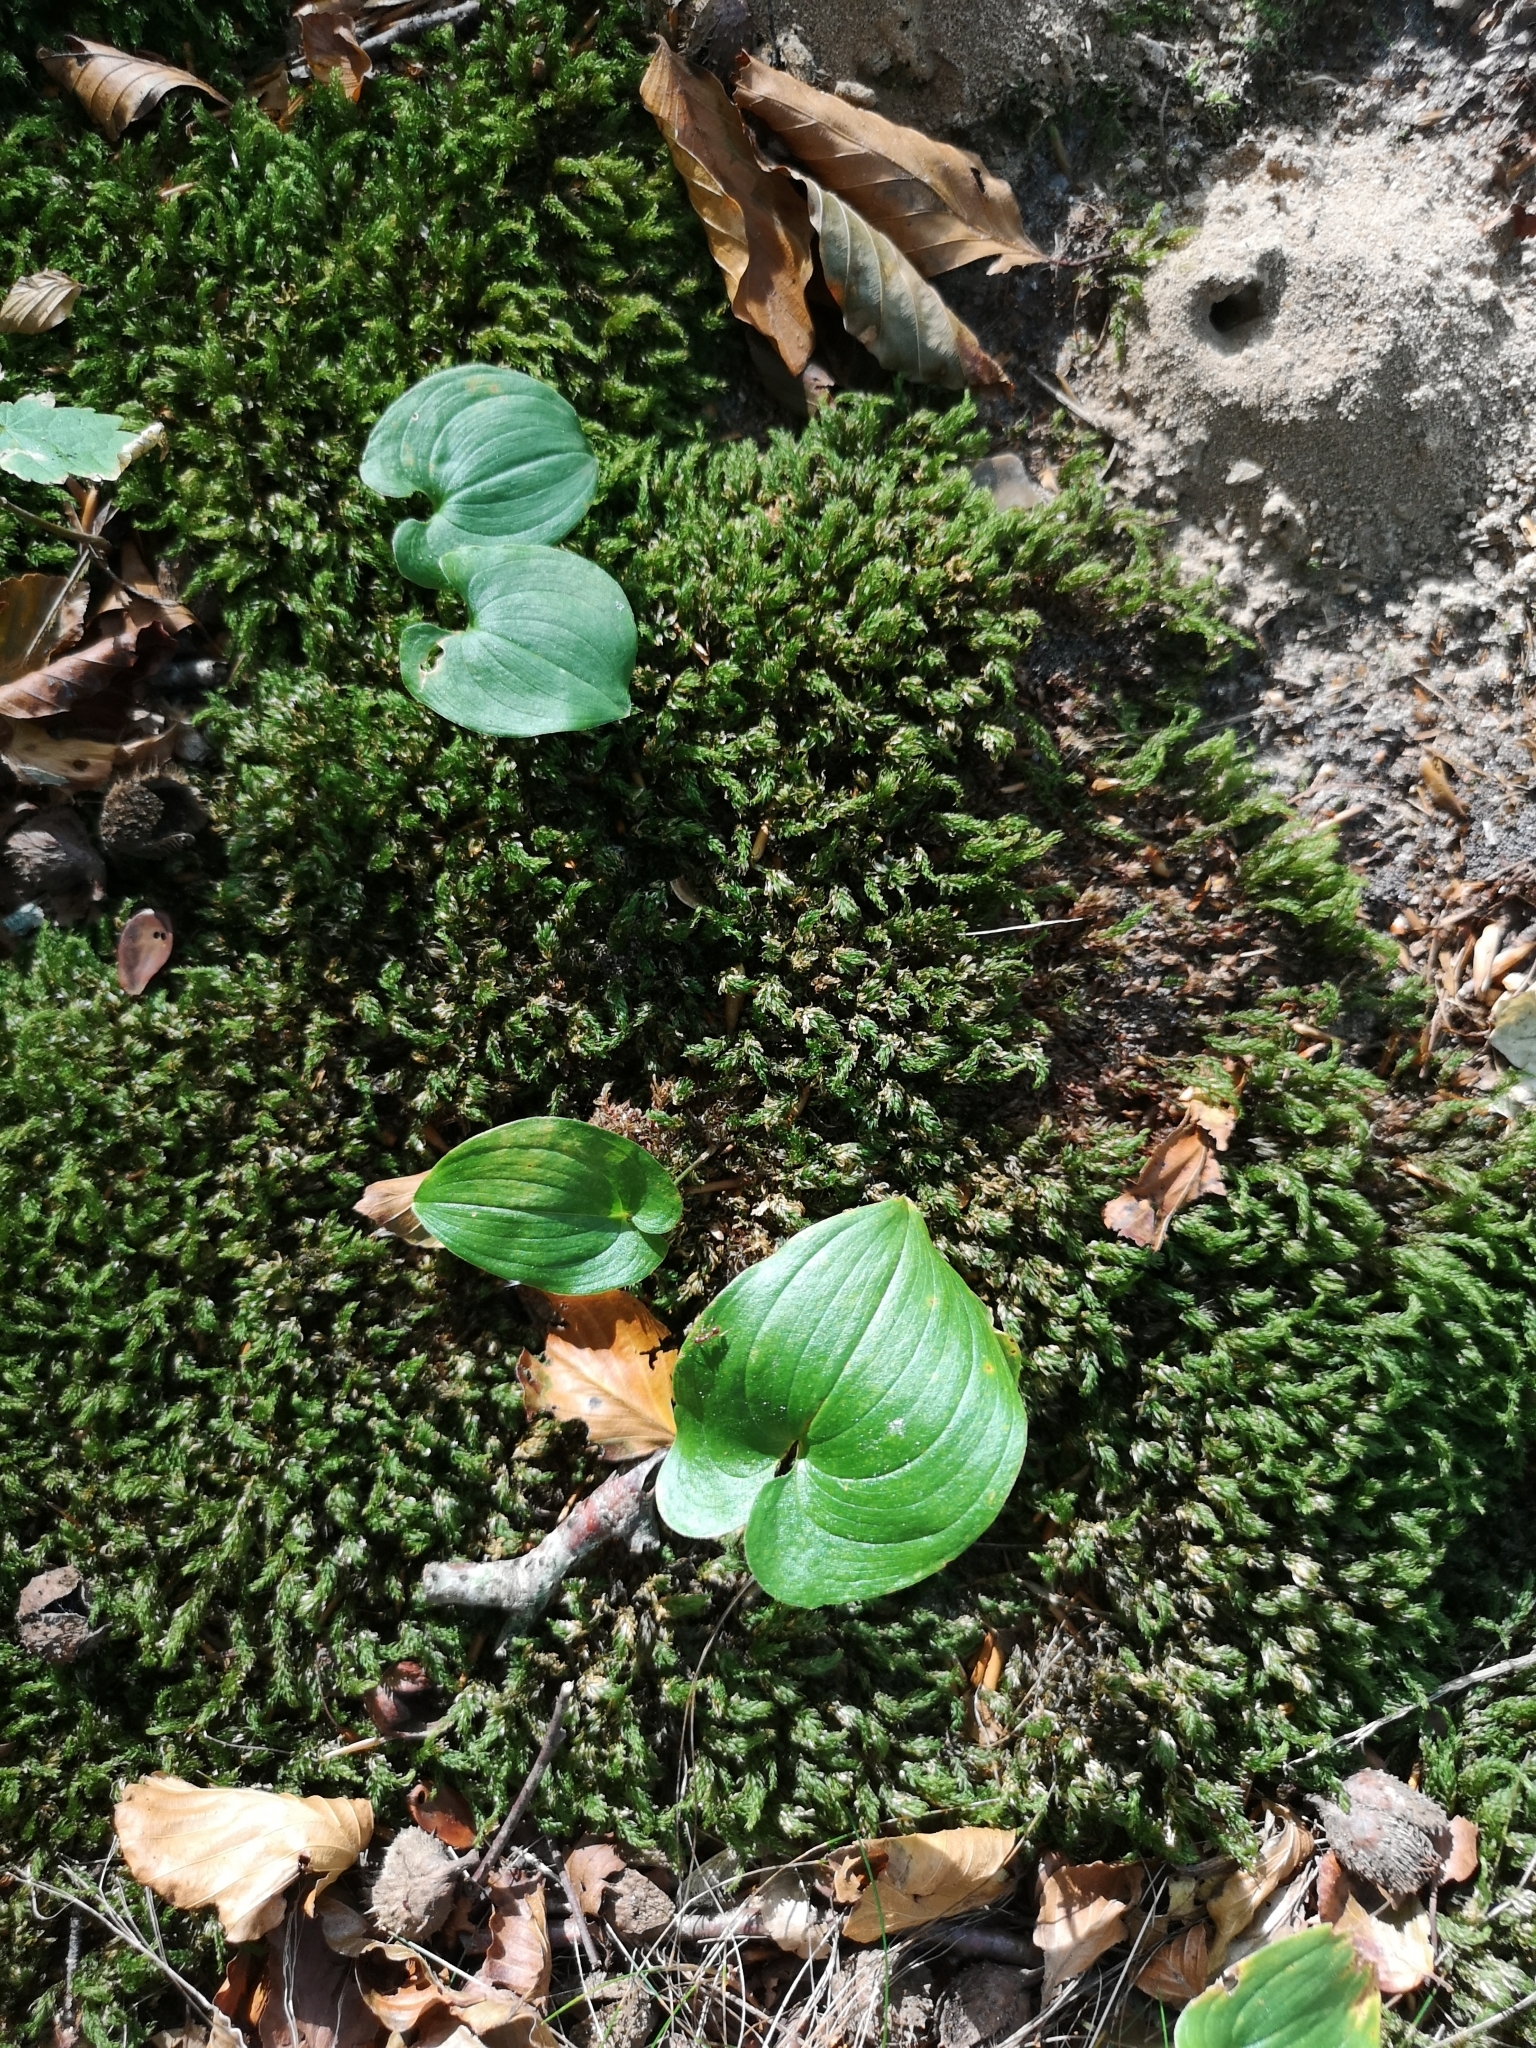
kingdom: Plantae
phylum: Tracheophyta
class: Liliopsida
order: Asparagales
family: Asparagaceae
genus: Maianthemum
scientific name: Maianthemum bifolium
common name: May lily
